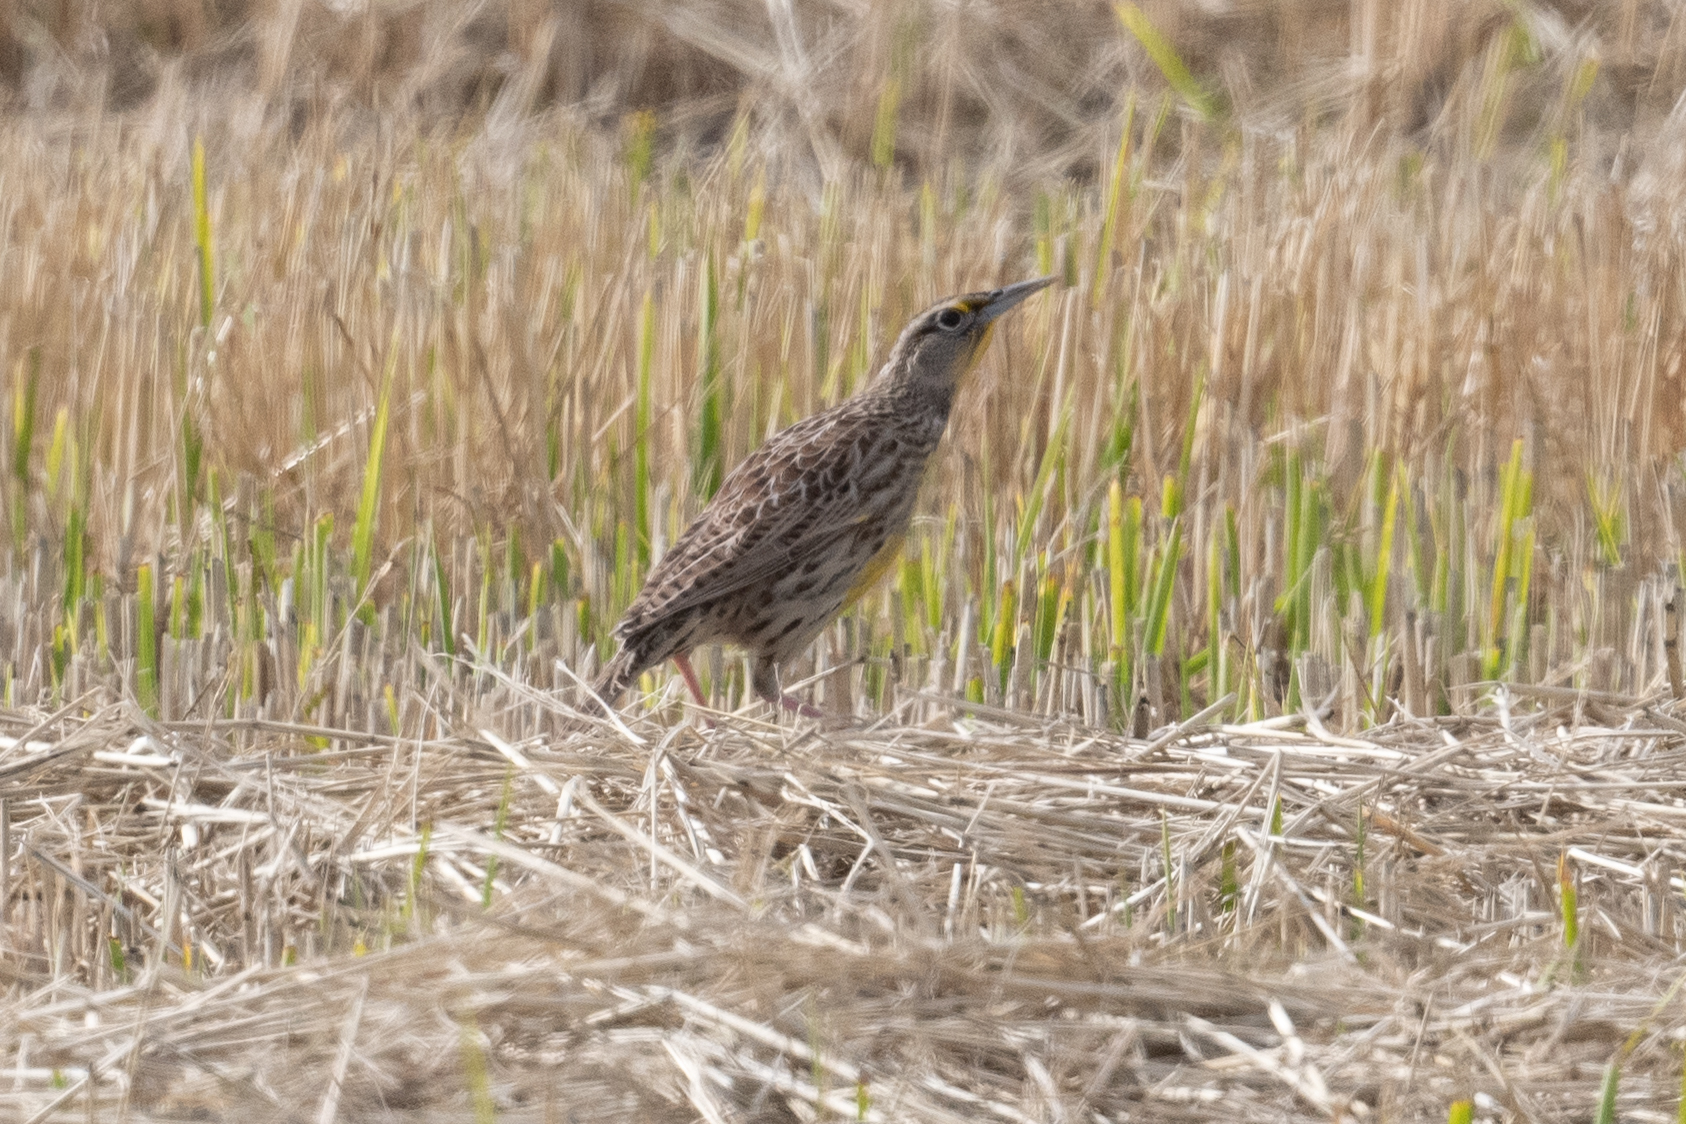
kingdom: Animalia
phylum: Chordata
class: Aves
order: Passeriformes
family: Icteridae
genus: Sturnella
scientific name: Sturnella neglecta
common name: Western meadowlark
